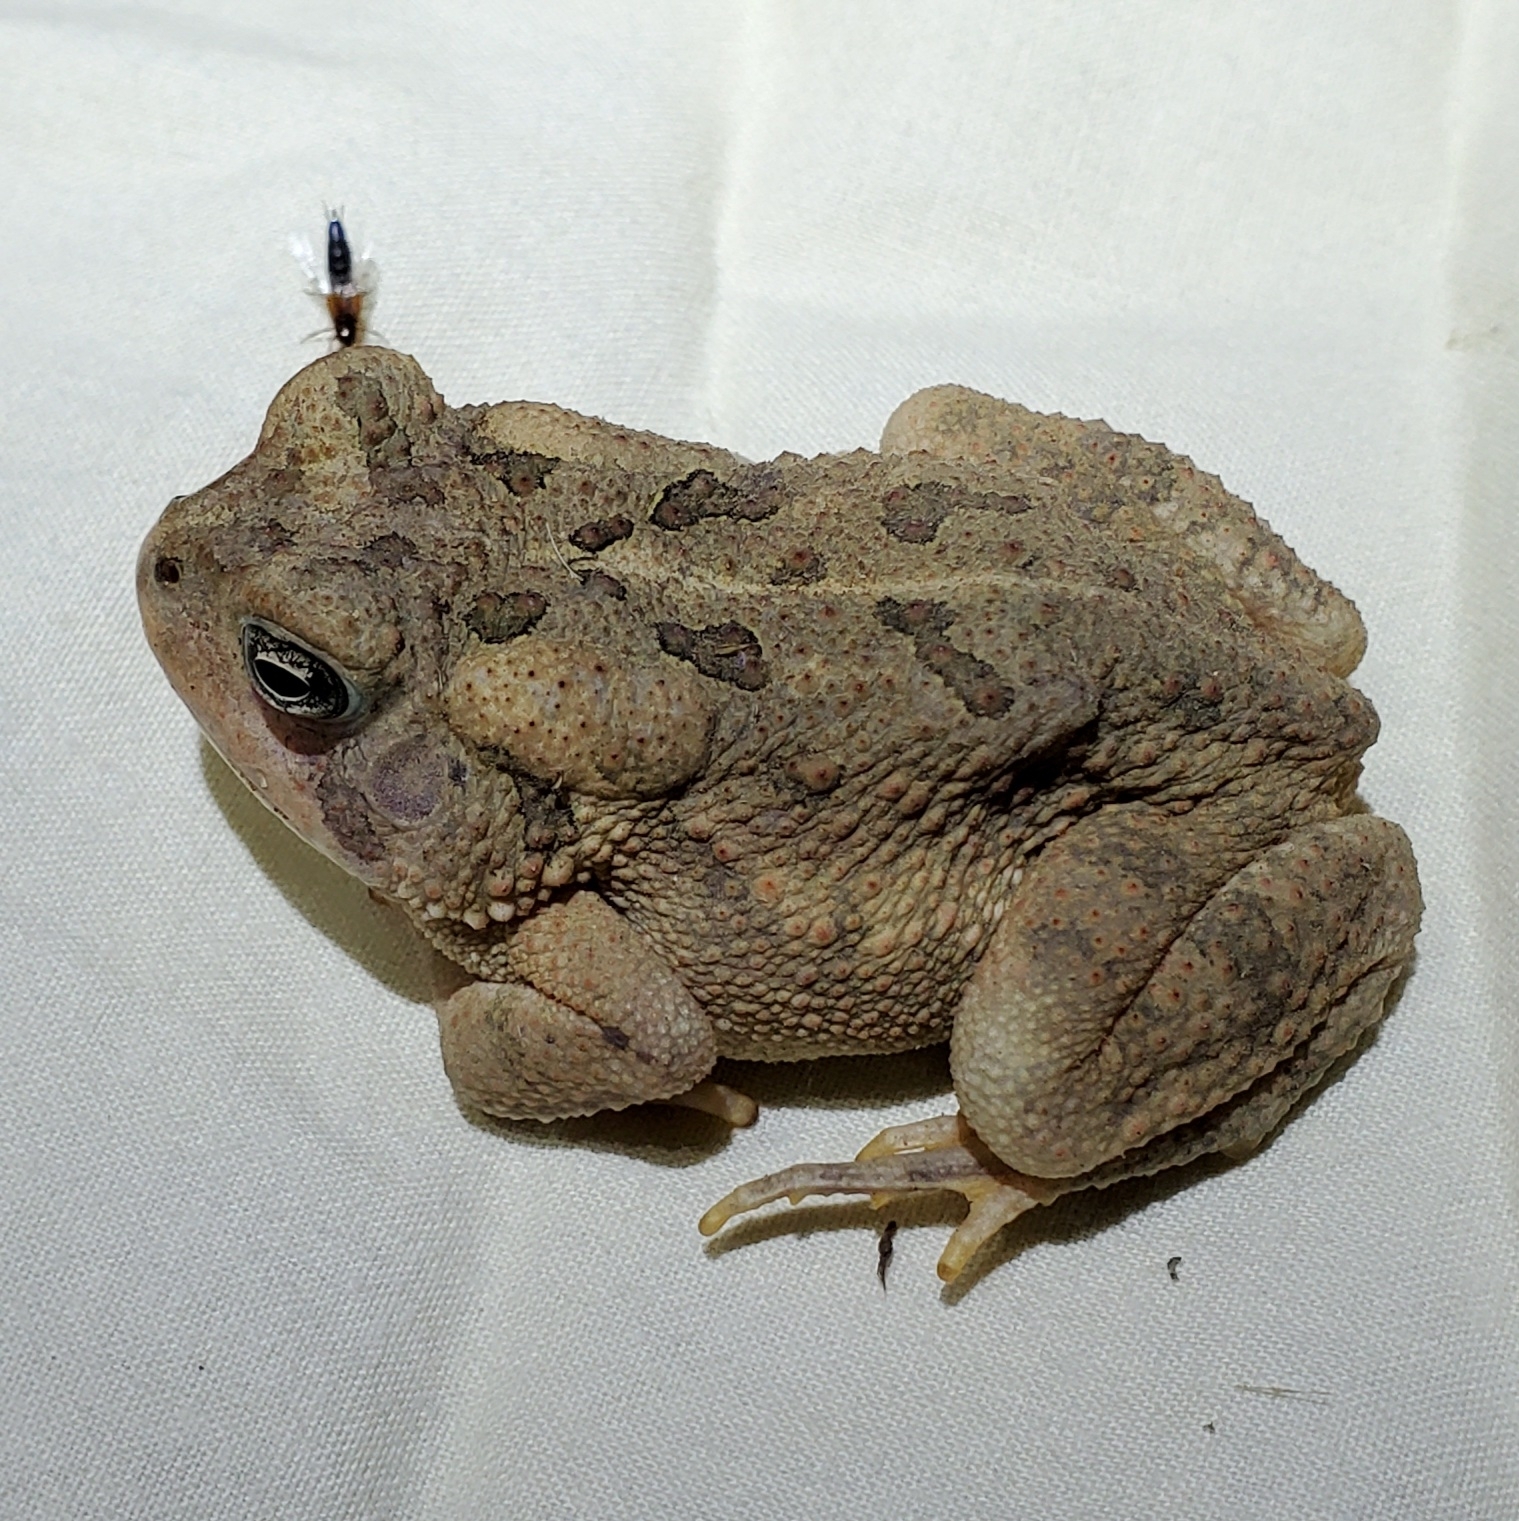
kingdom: Animalia
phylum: Chordata
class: Amphibia
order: Anura
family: Bufonidae
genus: Anaxyrus
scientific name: Anaxyrus fowleri
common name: Fowler's toad
